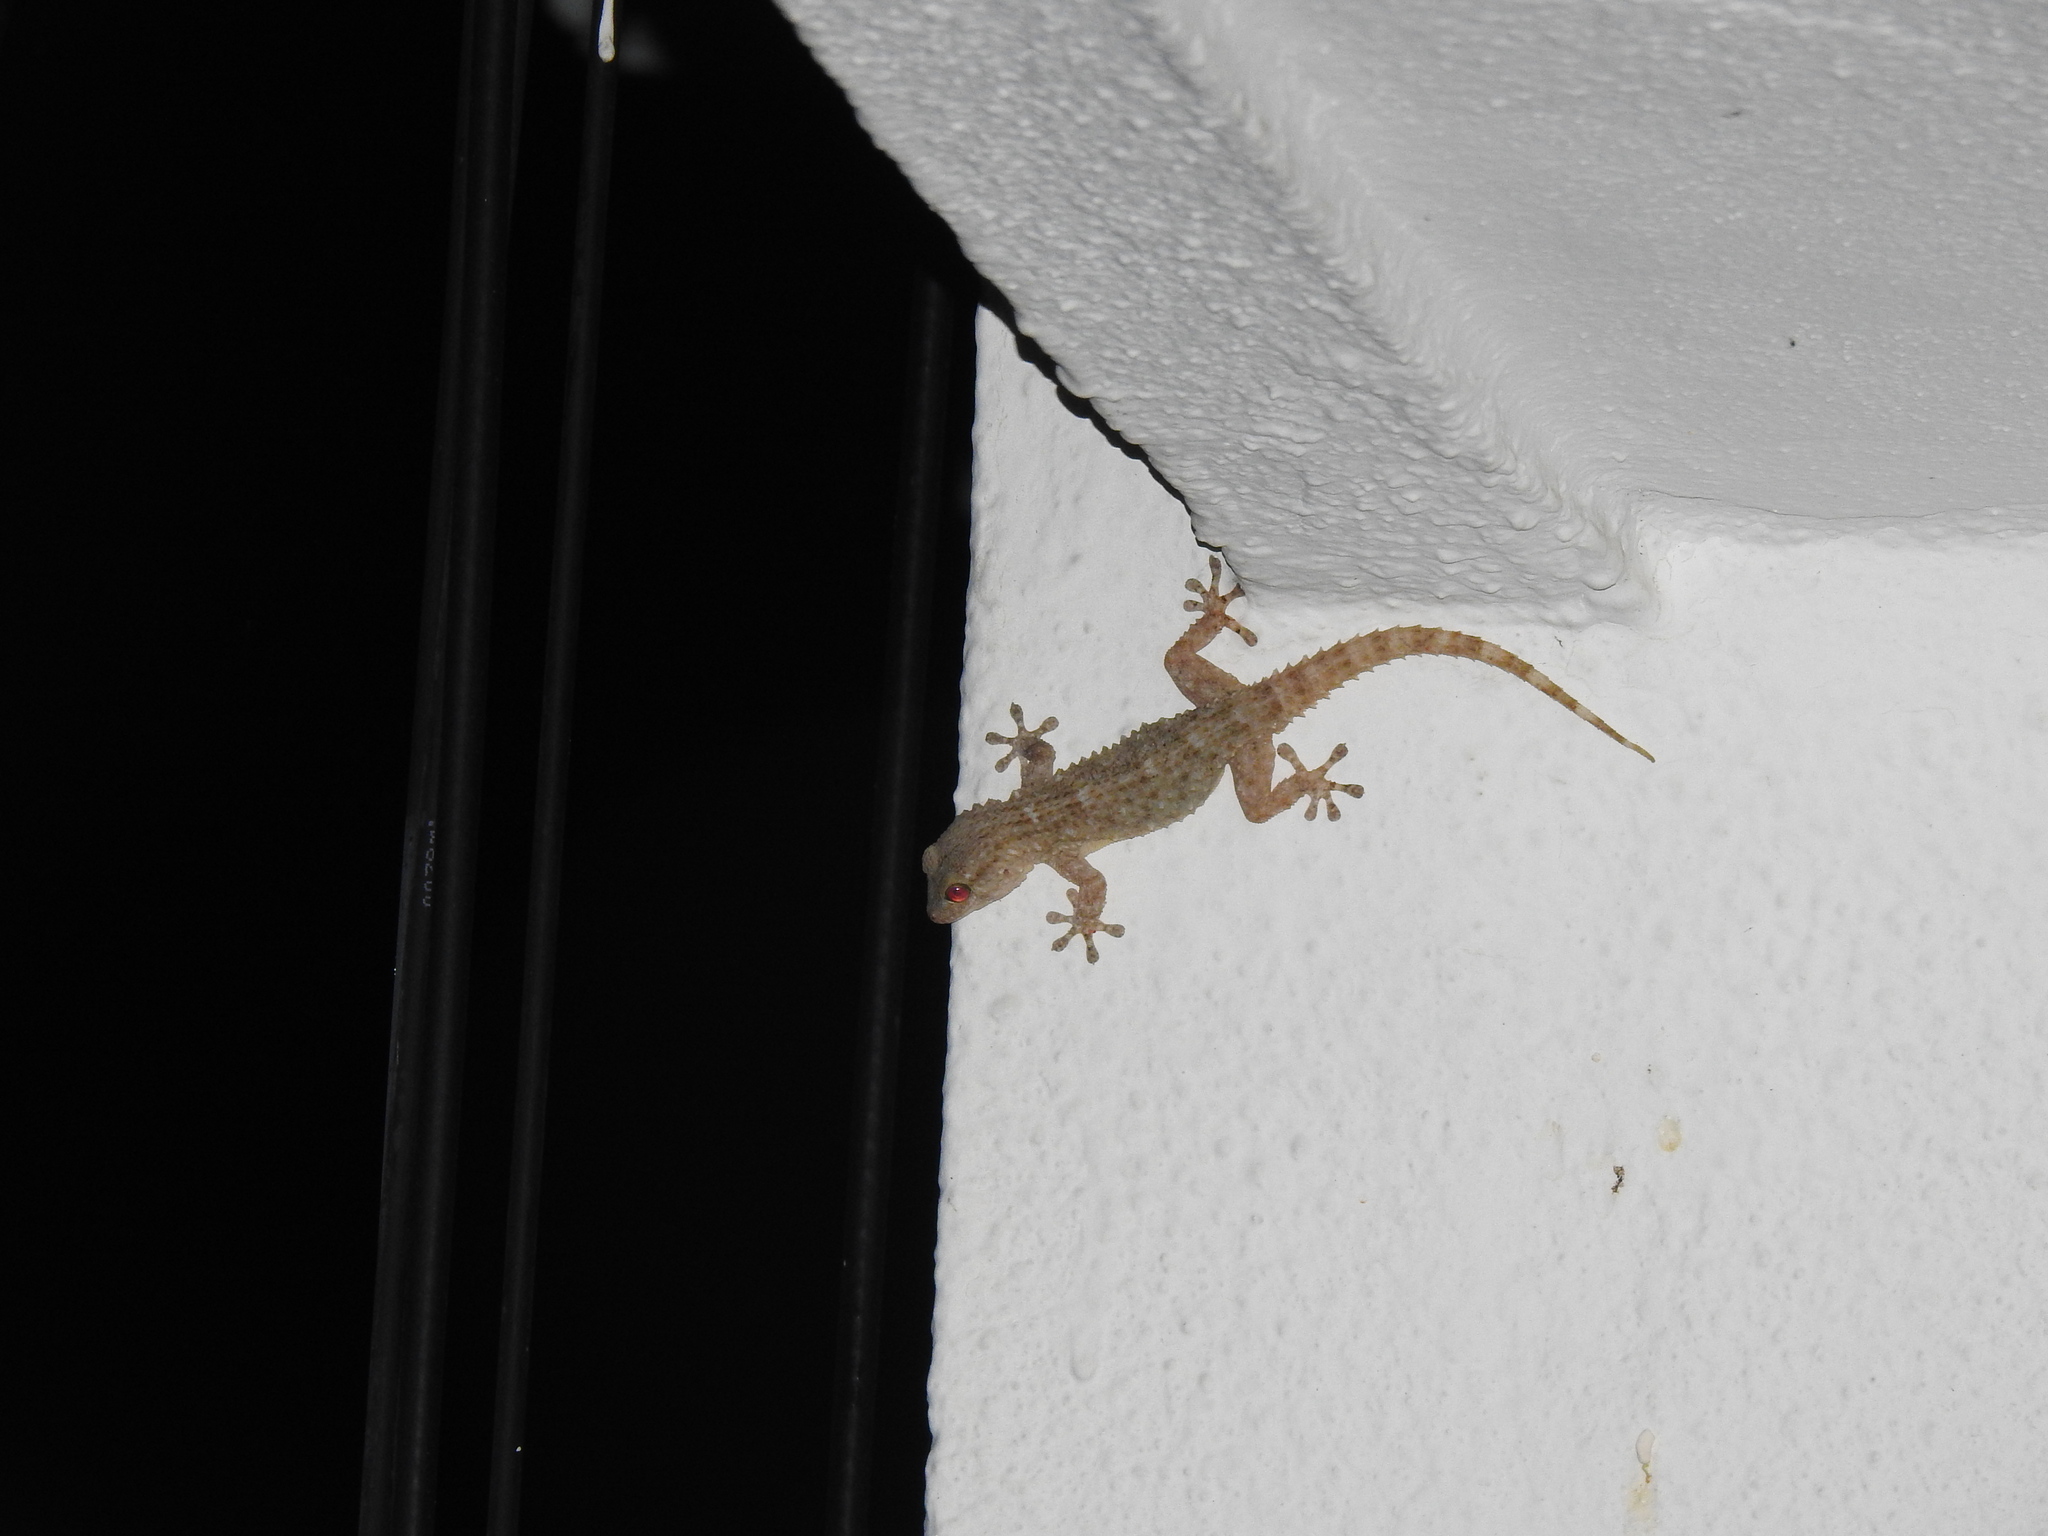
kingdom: Animalia
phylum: Chordata
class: Squamata
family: Phyllodactylidae
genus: Tarentola
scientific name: Tarentola mauritanica
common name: Moorish gecko
